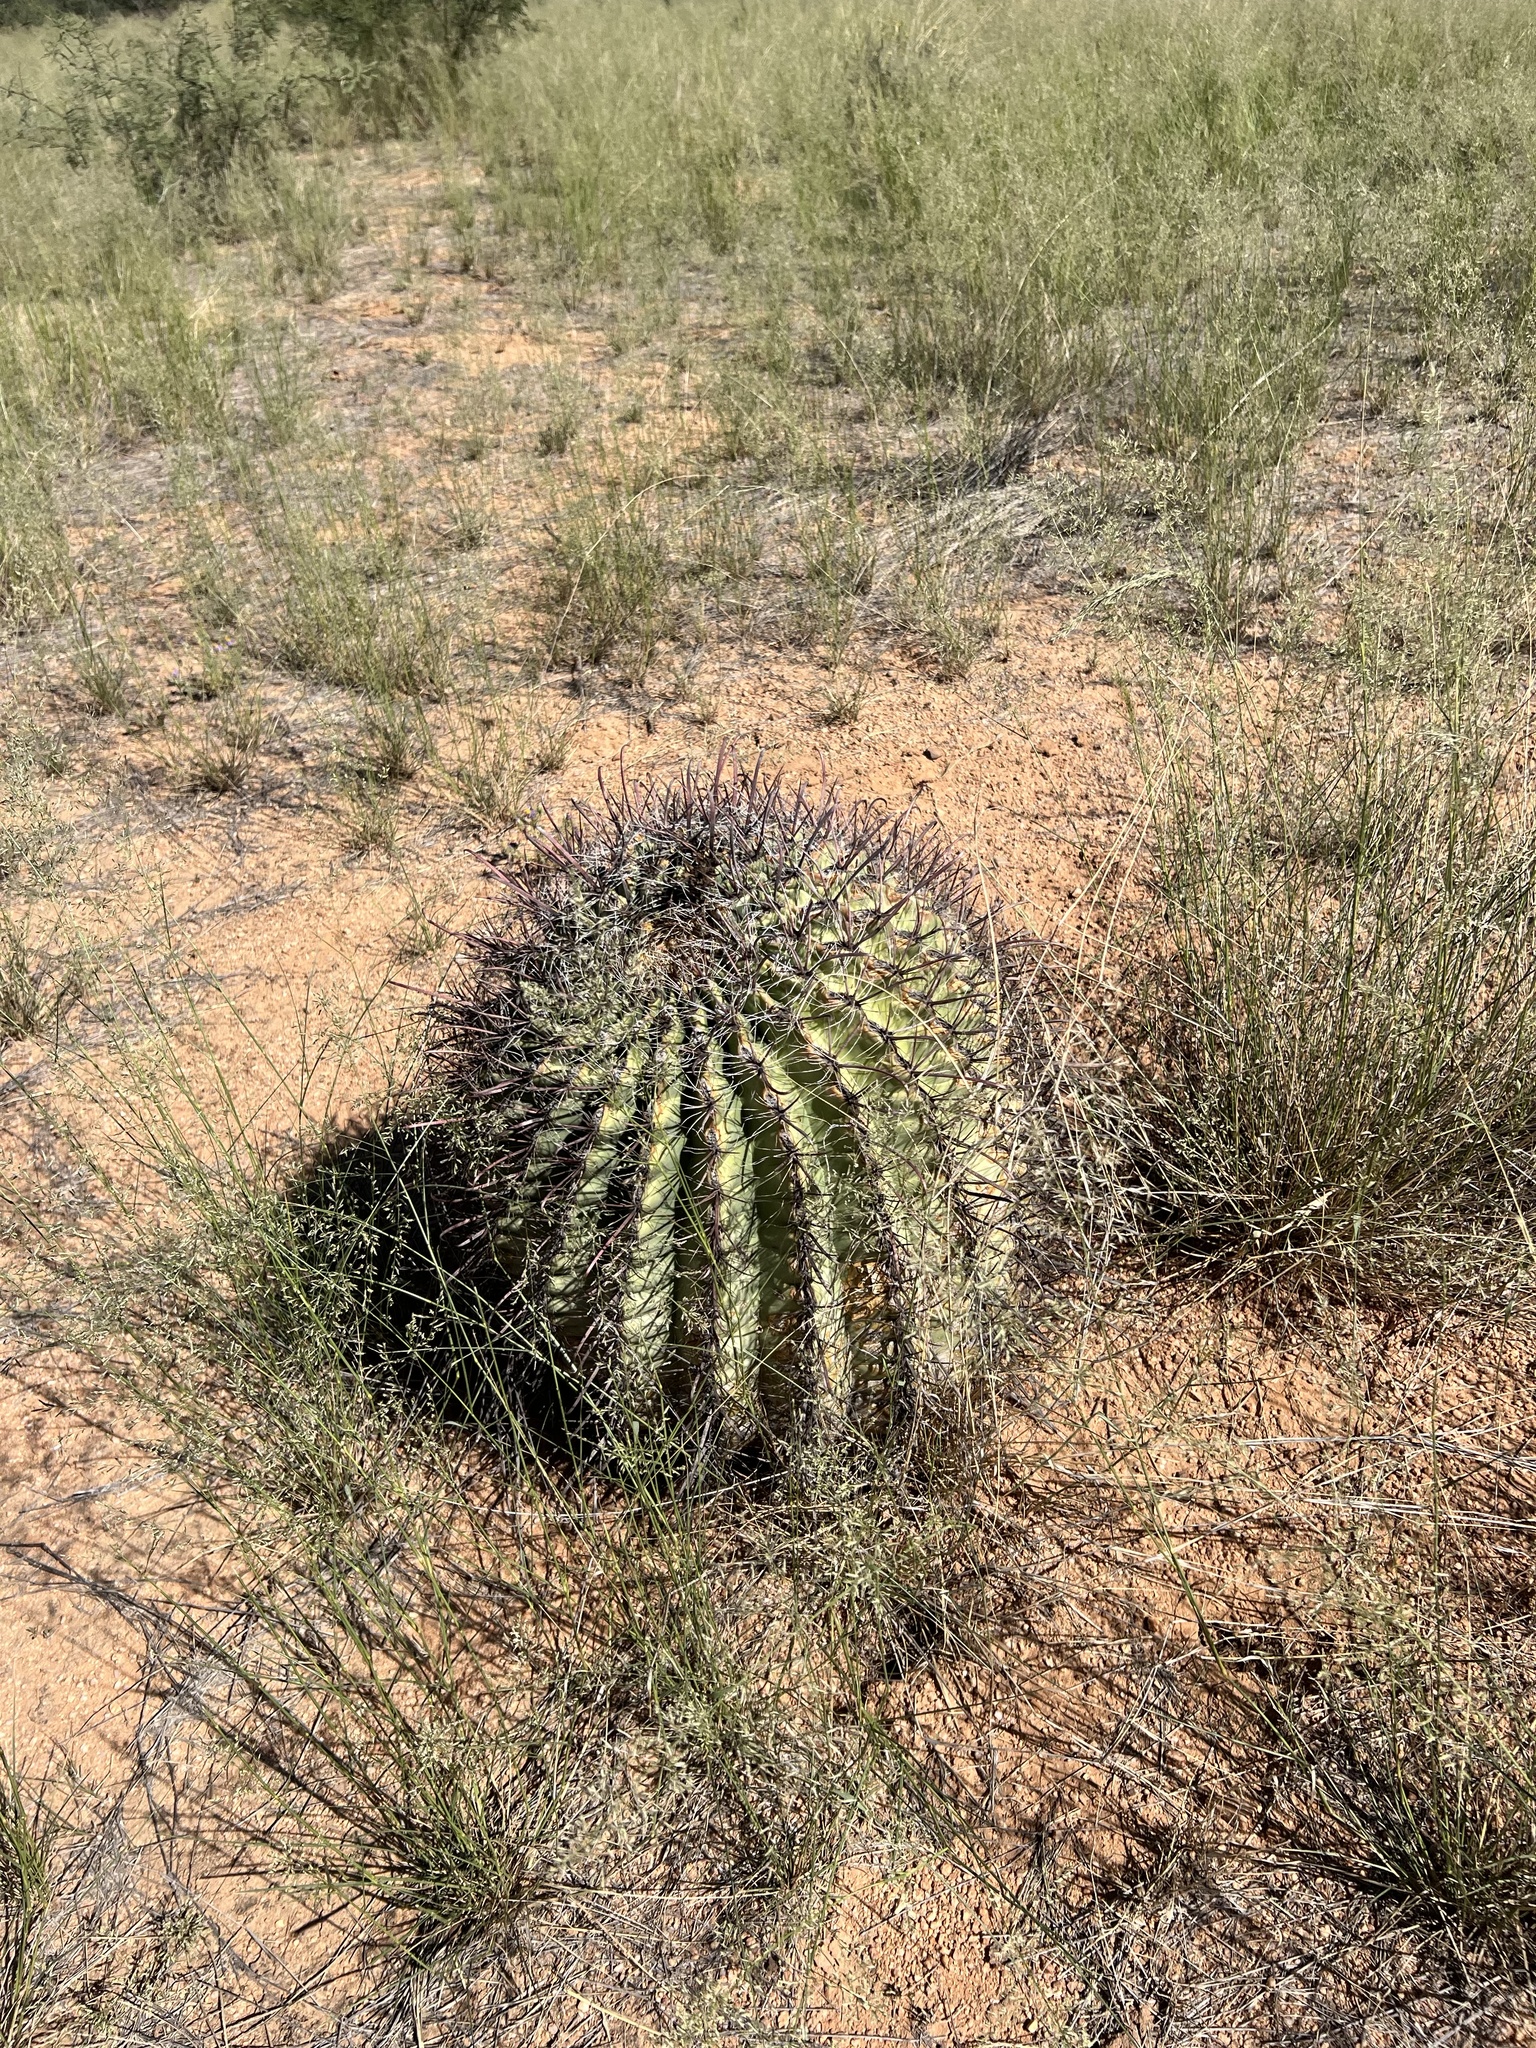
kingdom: Plantae
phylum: Tracheophyta
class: Magnoliopsida
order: Caryophyllales
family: Cactaceae
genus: Ferocactus
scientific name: Ferocactus wislizeni
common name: Candy barrel cactus
